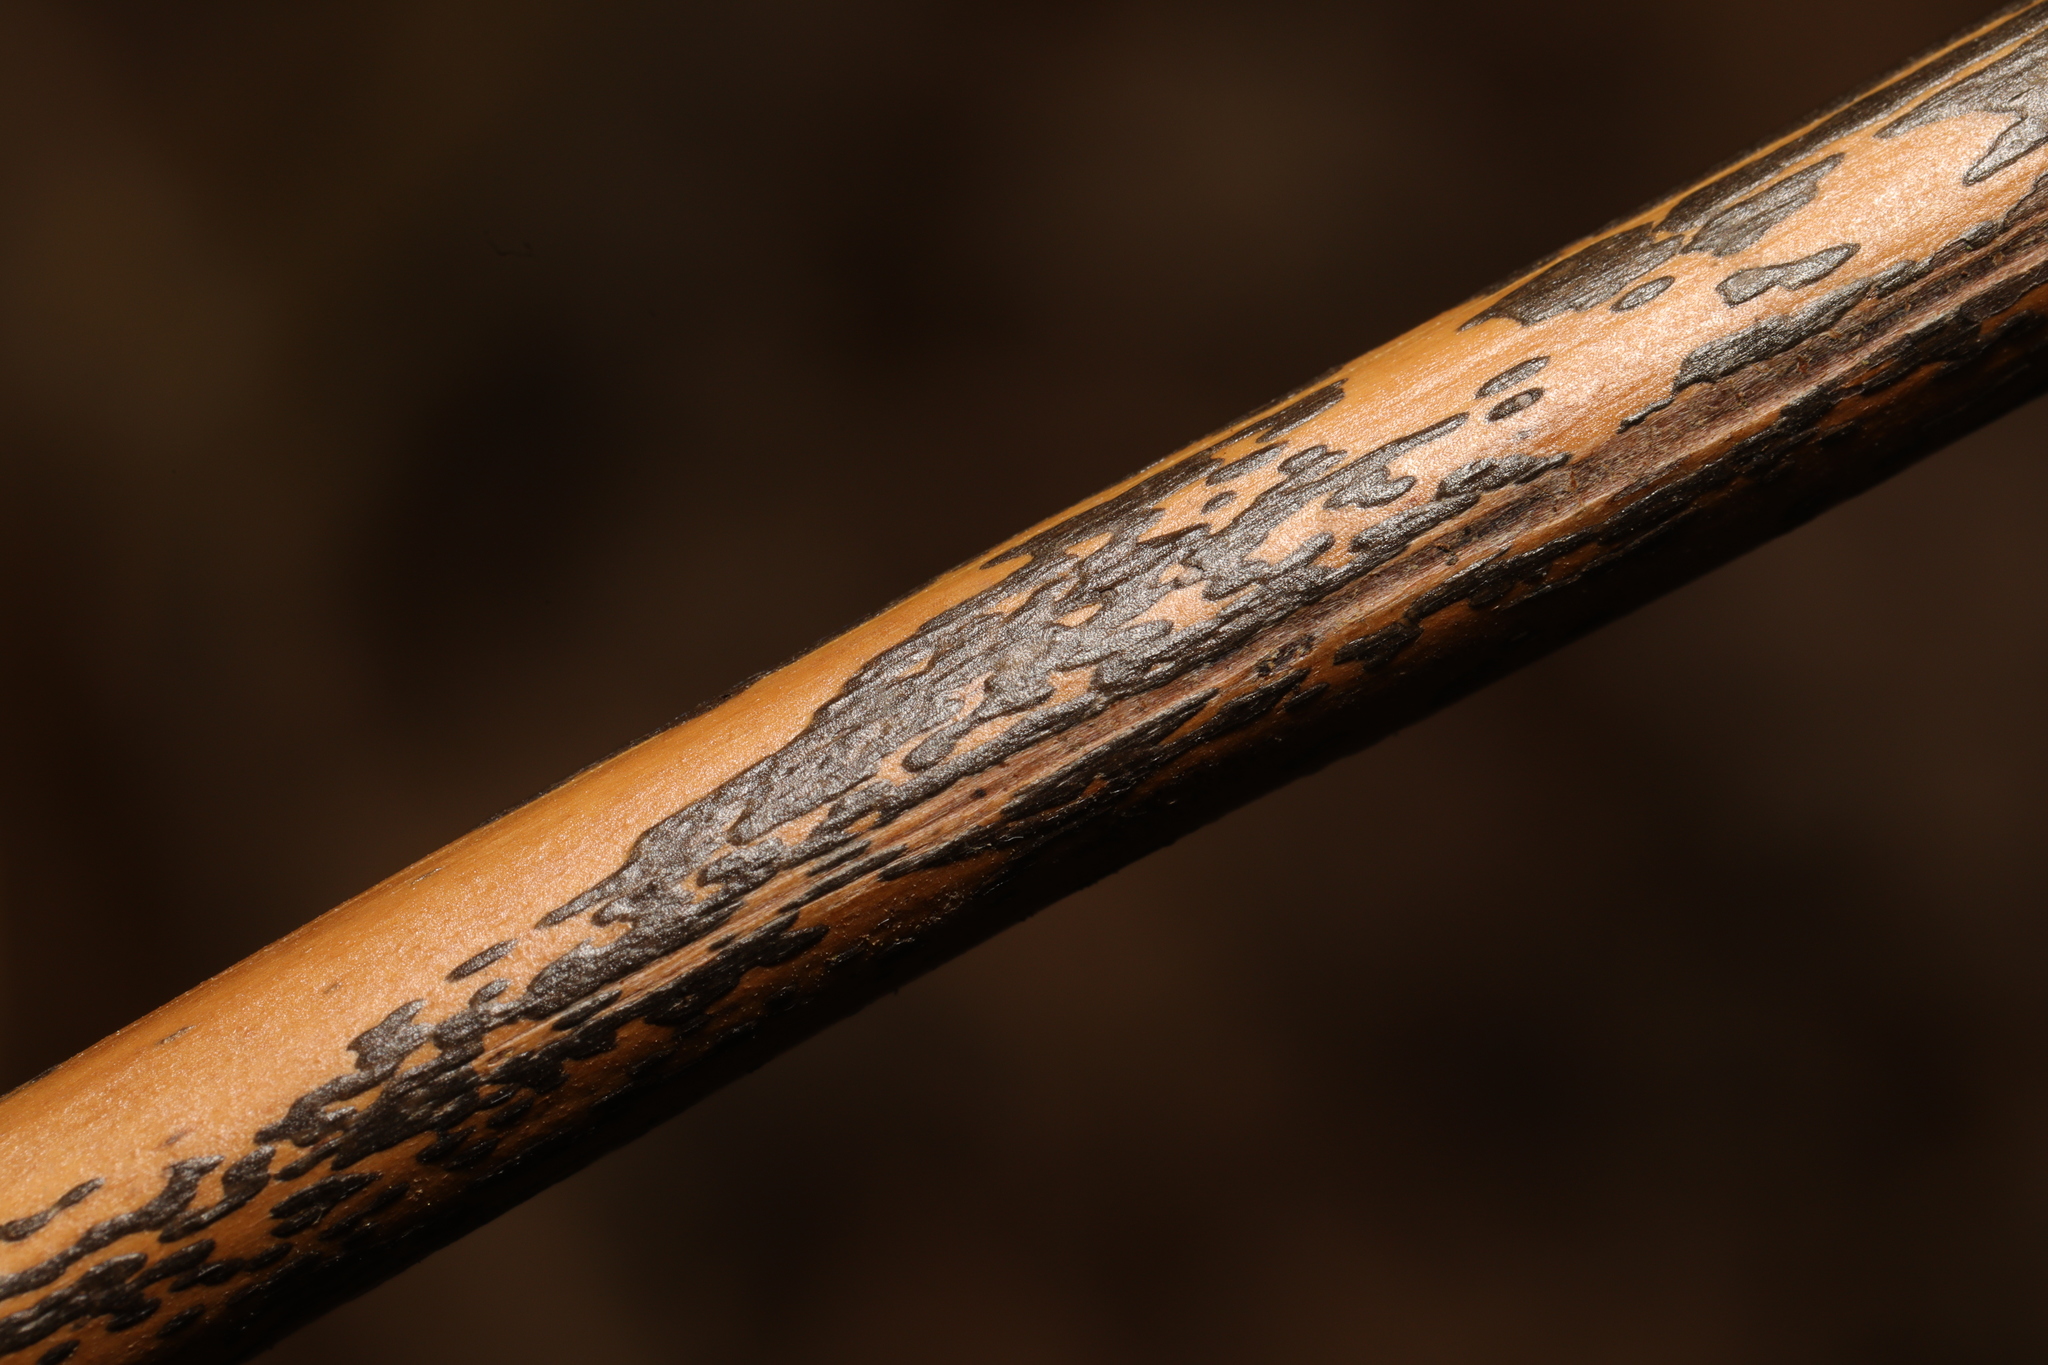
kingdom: Fungi
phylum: Ascomycota
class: Dothideomycetes
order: Pleosporales
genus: Rhopographus
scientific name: Rhopographus filicinus
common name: Bracken map
